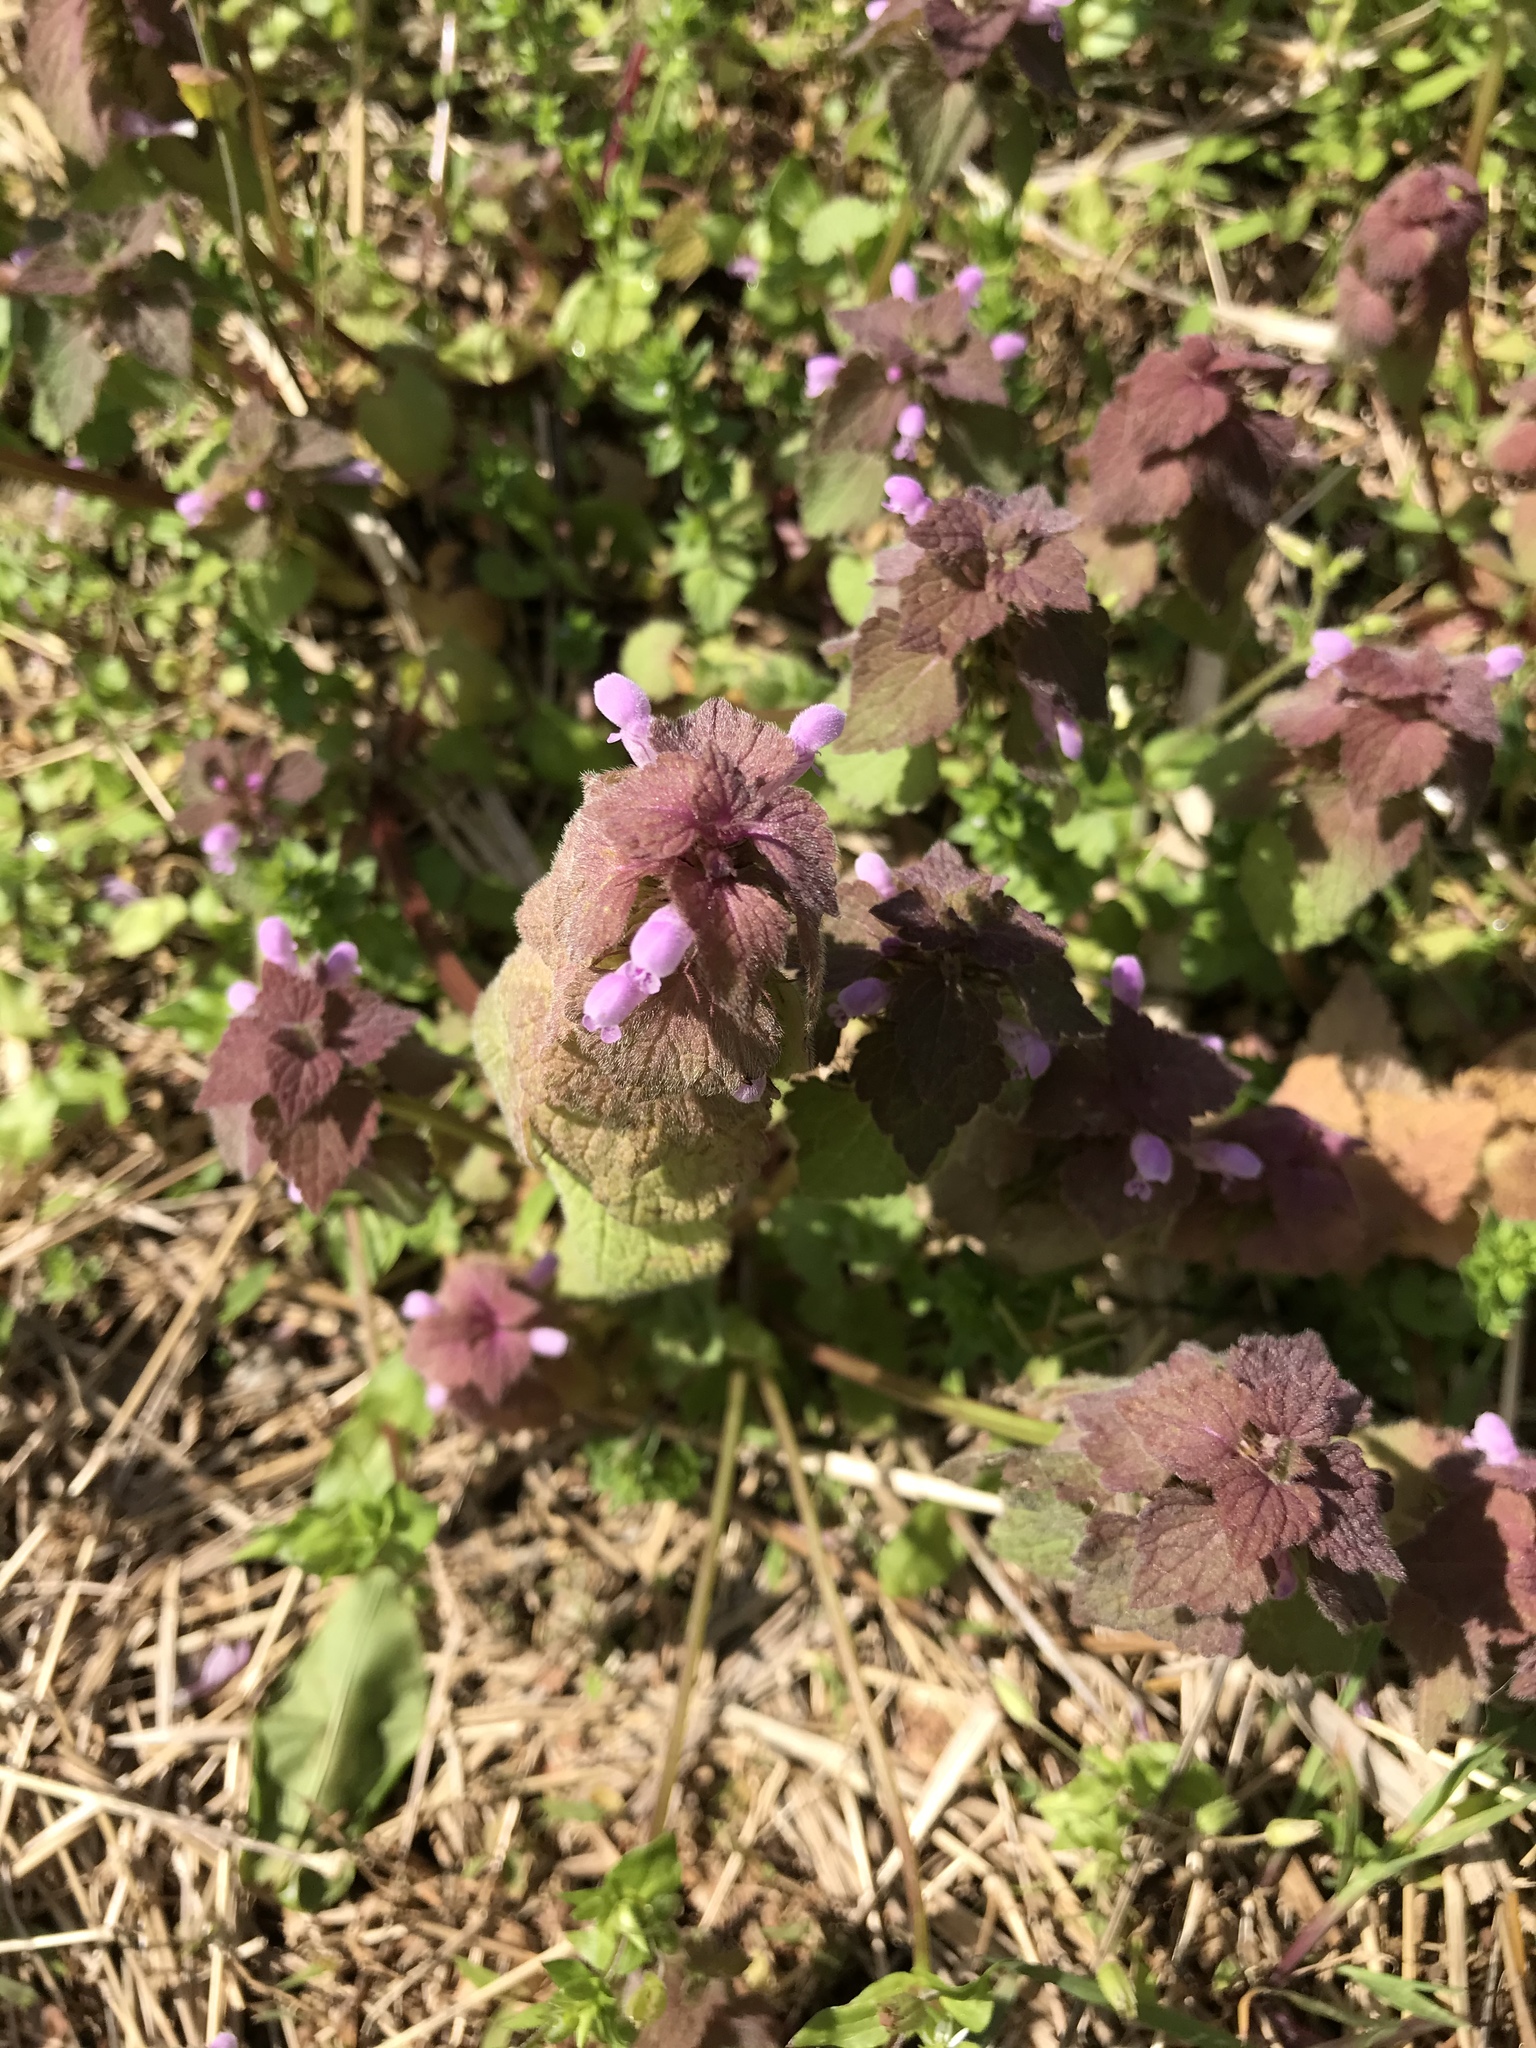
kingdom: Plantae
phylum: Tracheophyta
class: Magnoliopsida
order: Lamiales
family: Lamiaceae
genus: Lamium
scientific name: Lamium purpureum
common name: Red dead-nettle
